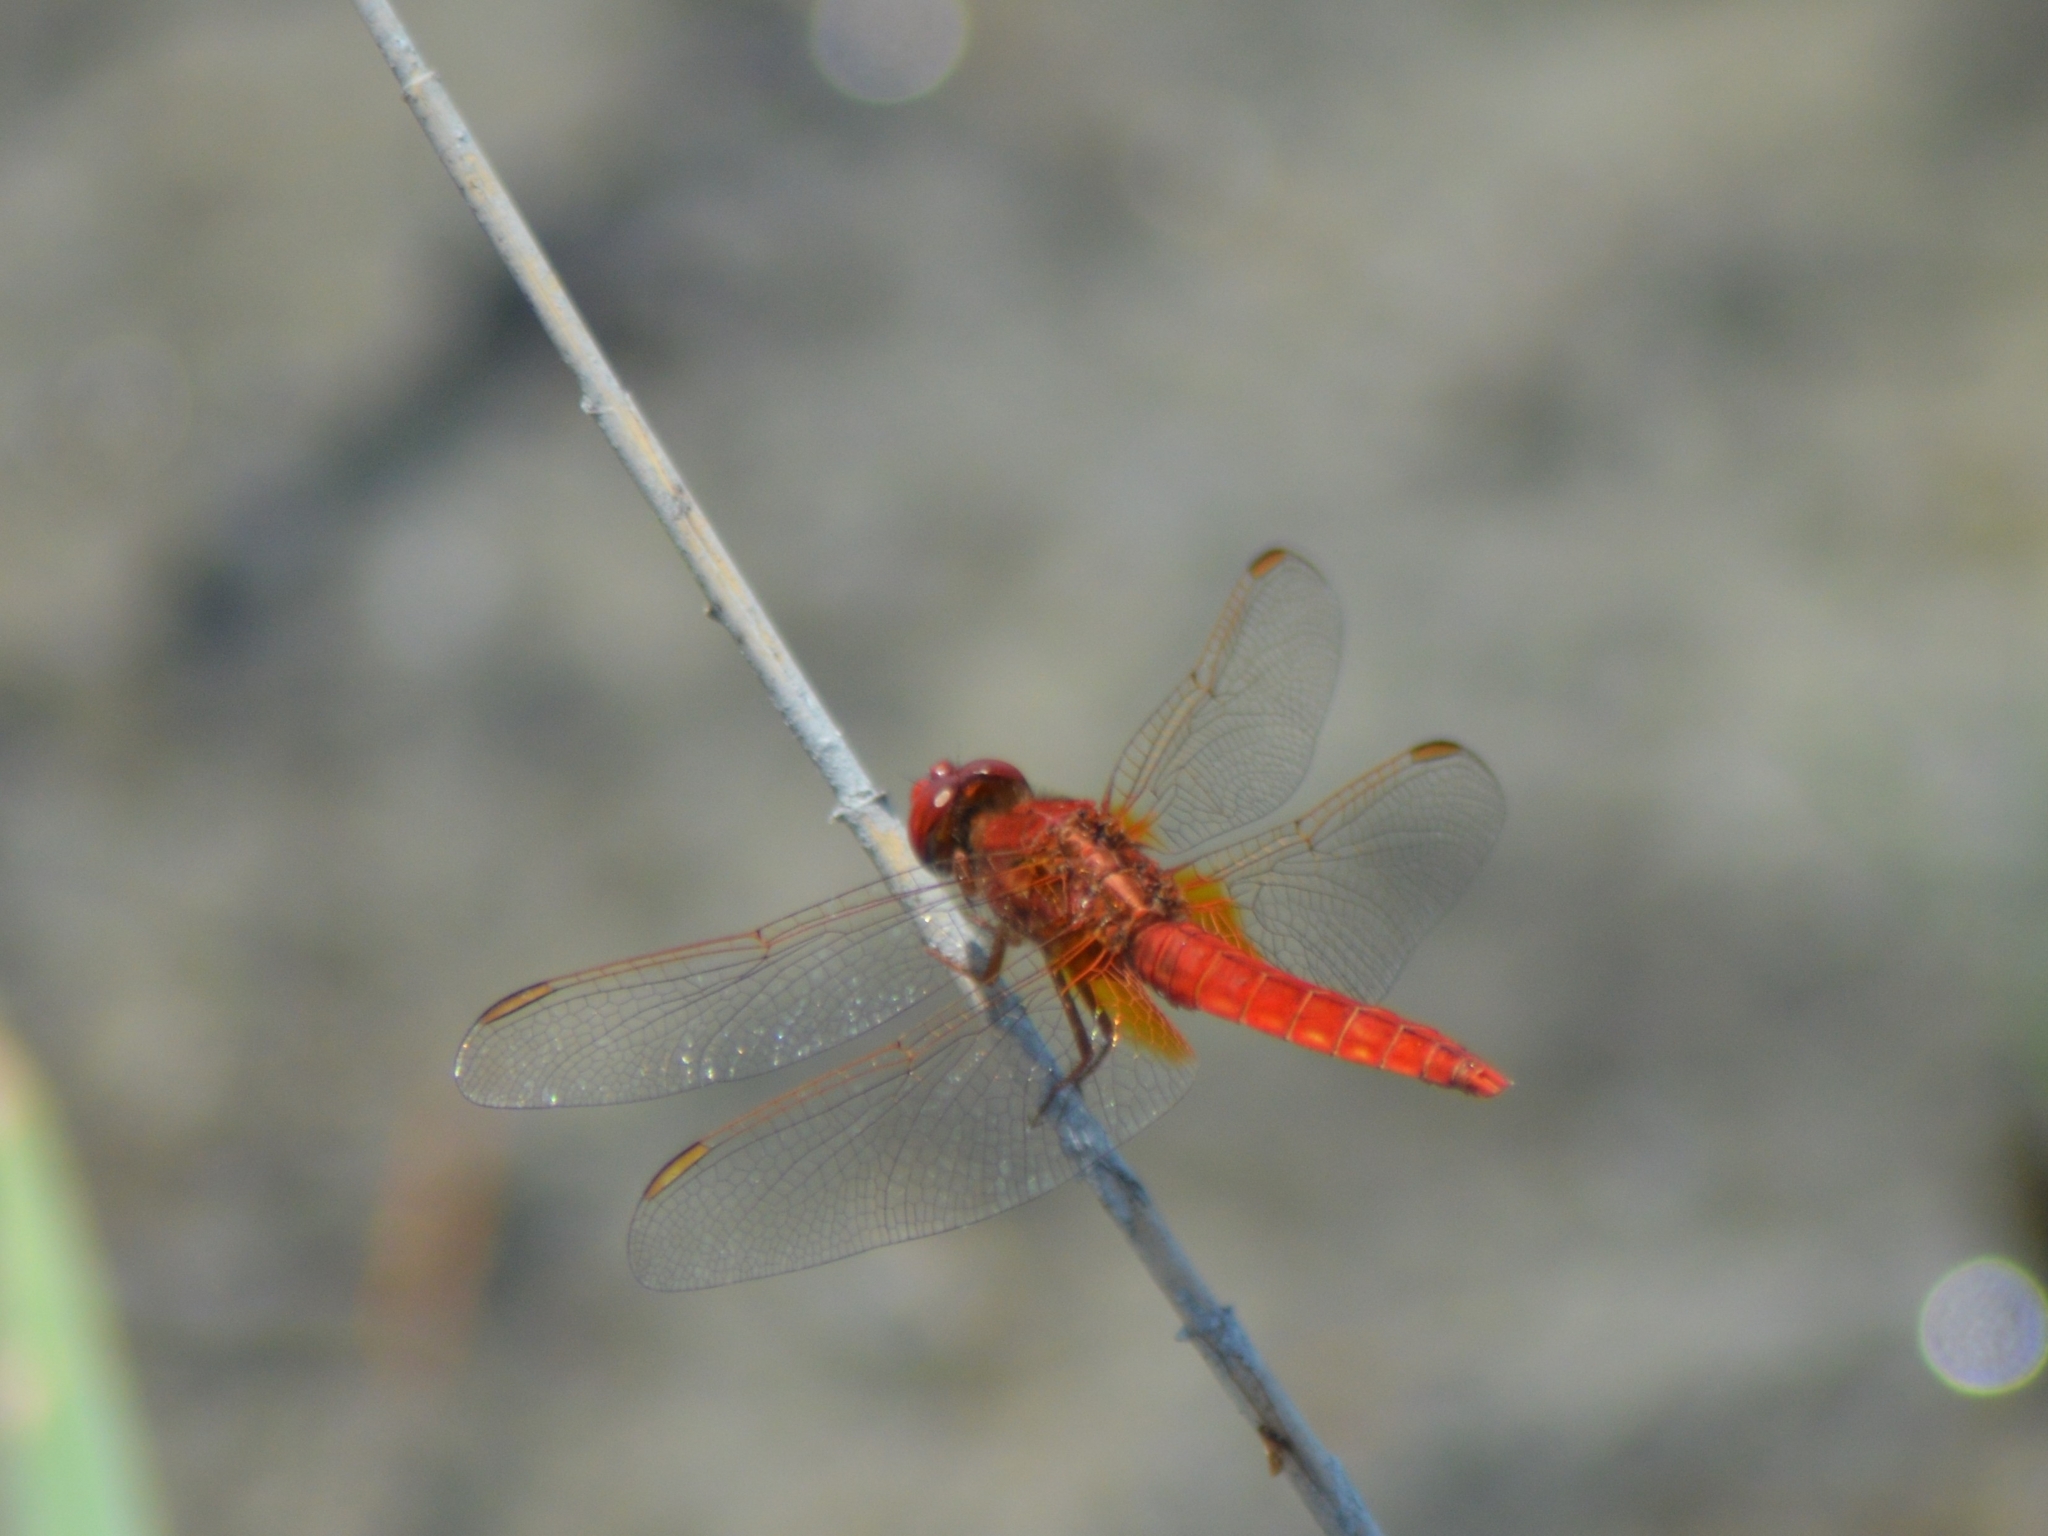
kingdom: Animalia
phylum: Arthropoda
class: Insecta
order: Odonata
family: Libellulidae
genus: Crocothemis
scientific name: Crocothemis erythraea
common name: Scarlet dragonfly
